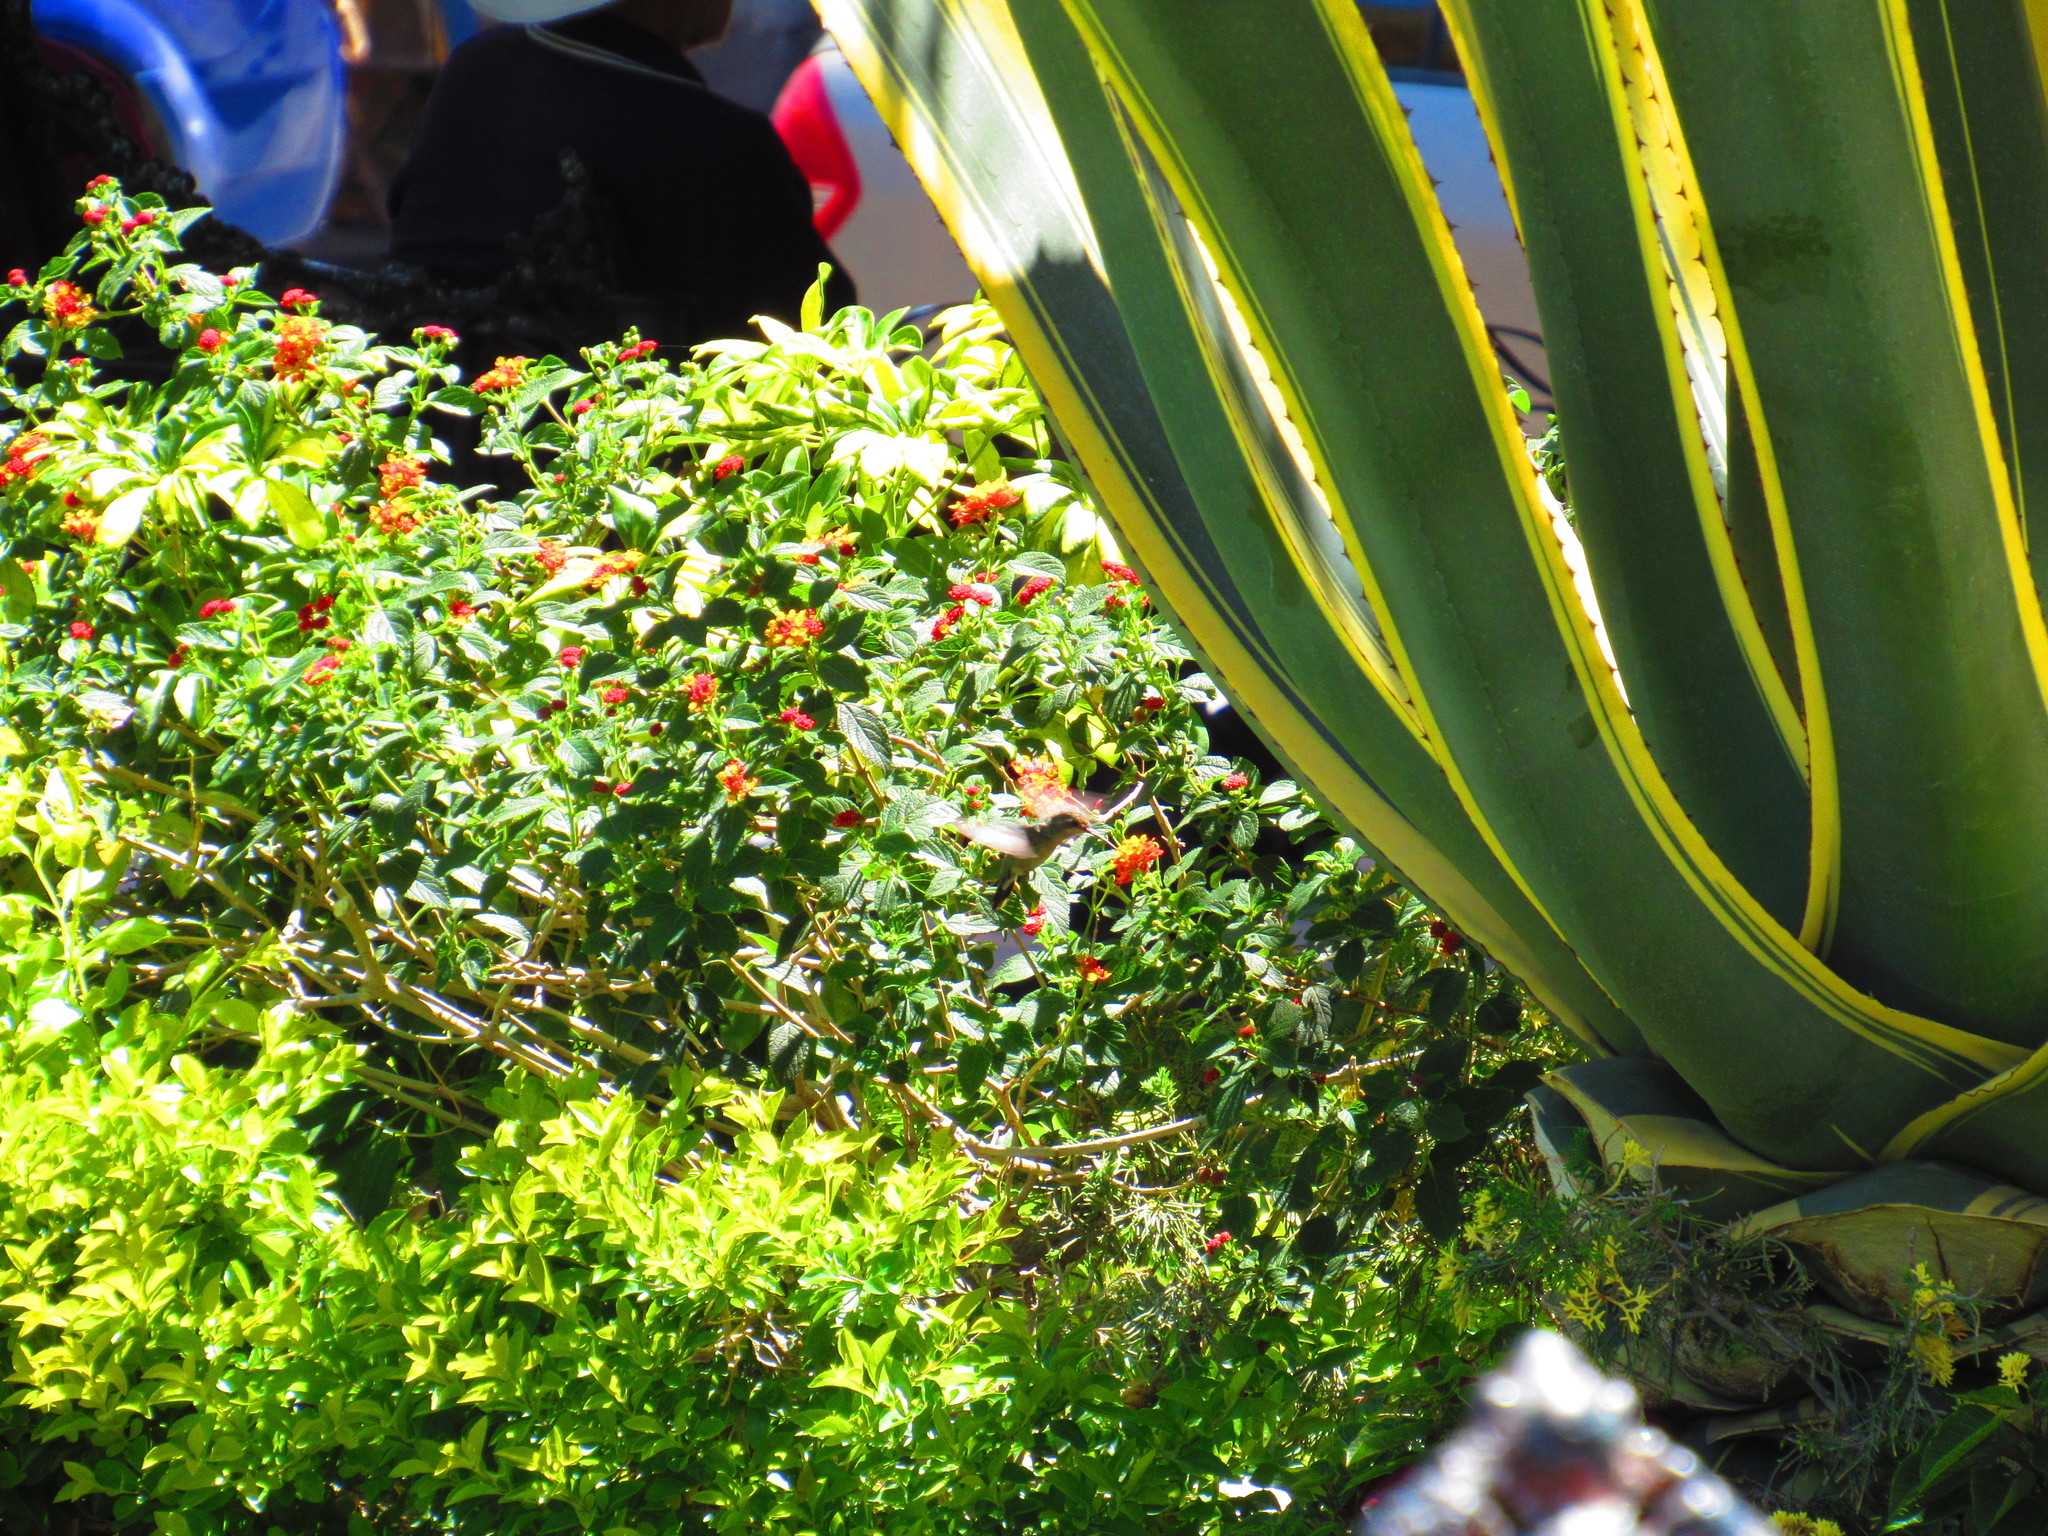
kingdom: Animalia
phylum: Chordata
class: Aves
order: Apodiformes
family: Trochilidae
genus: Cynanthus
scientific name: Cynanthus latirostris
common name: Broad-billed hummingbird
